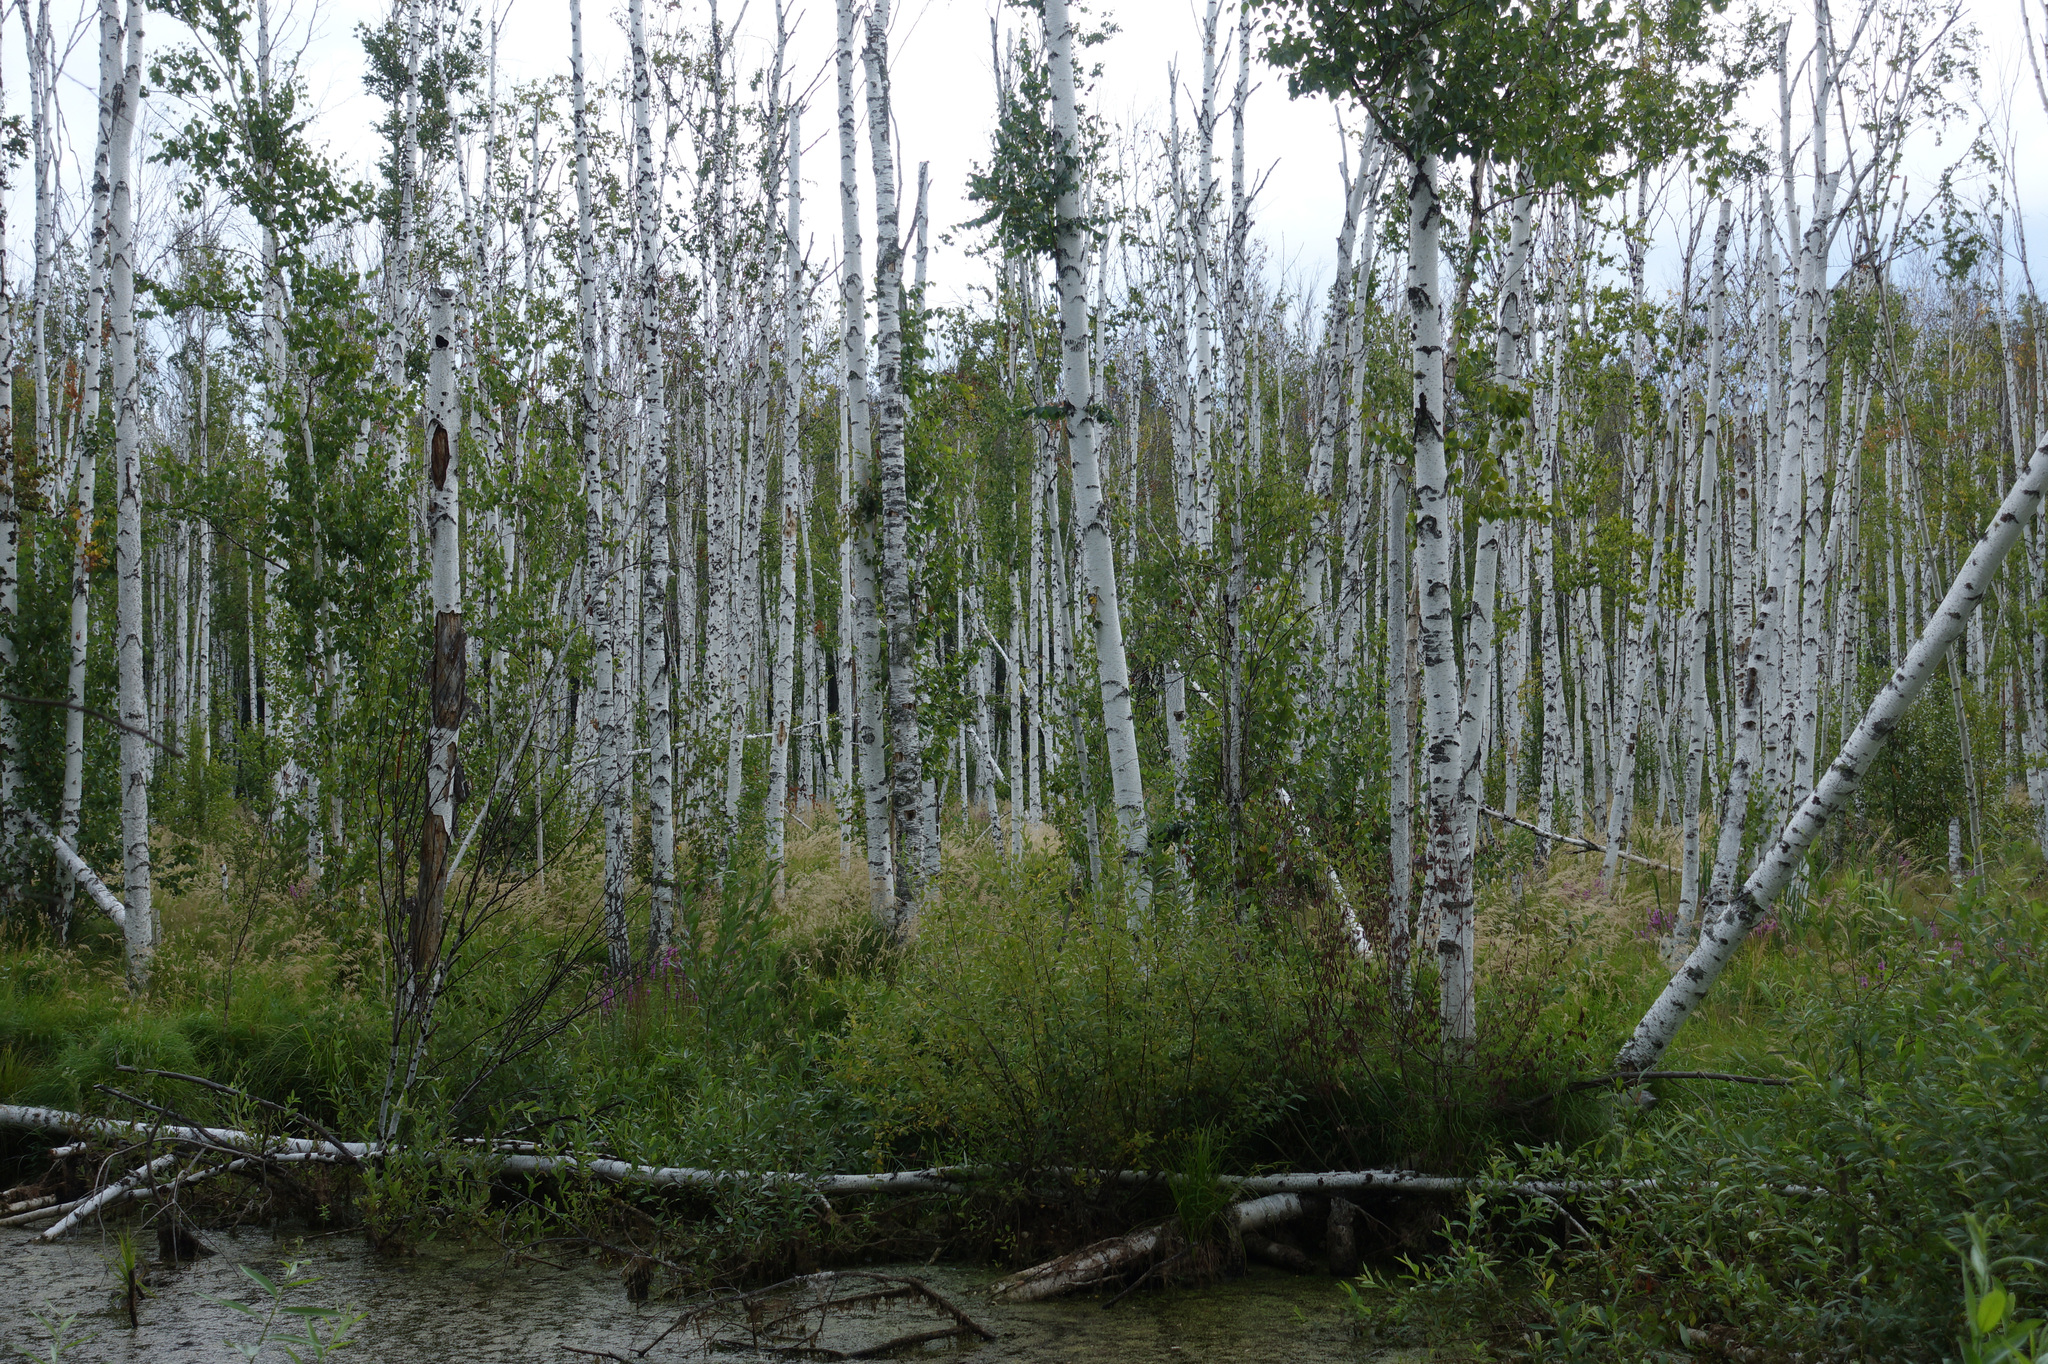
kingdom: Plantae
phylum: Tracheophyta
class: Magnoliopsida
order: Fagales
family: Betulaceae
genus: Betula
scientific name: Betula pubescens
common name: Downy birch
